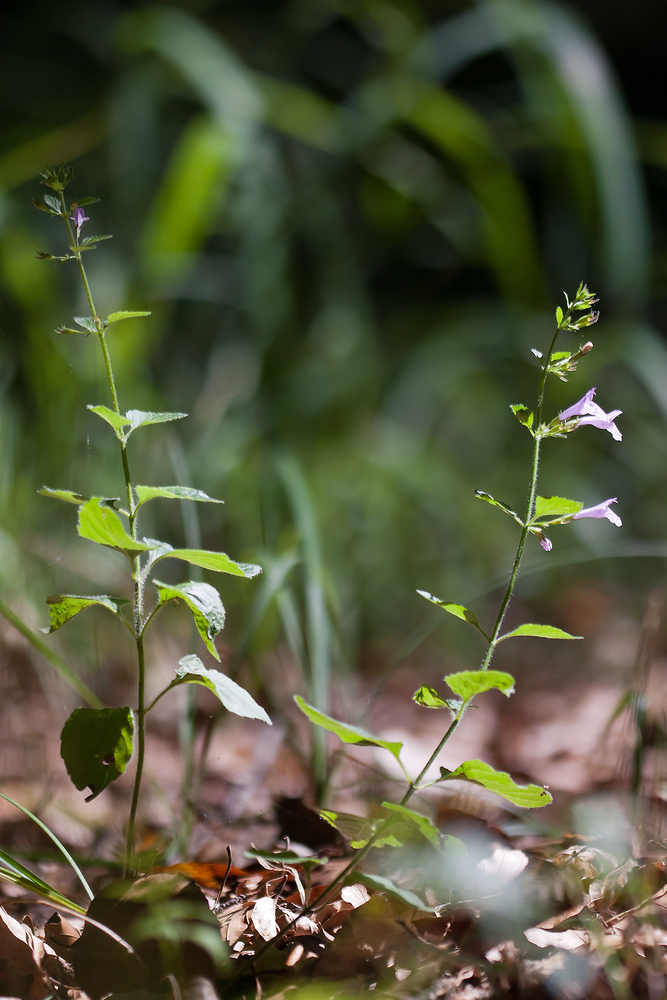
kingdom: Plantae
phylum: Tracheophyta
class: Magnoliopsida
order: Lamiales
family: Lamiaceae
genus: Clinopodium
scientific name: Clinopodium menthifolium
